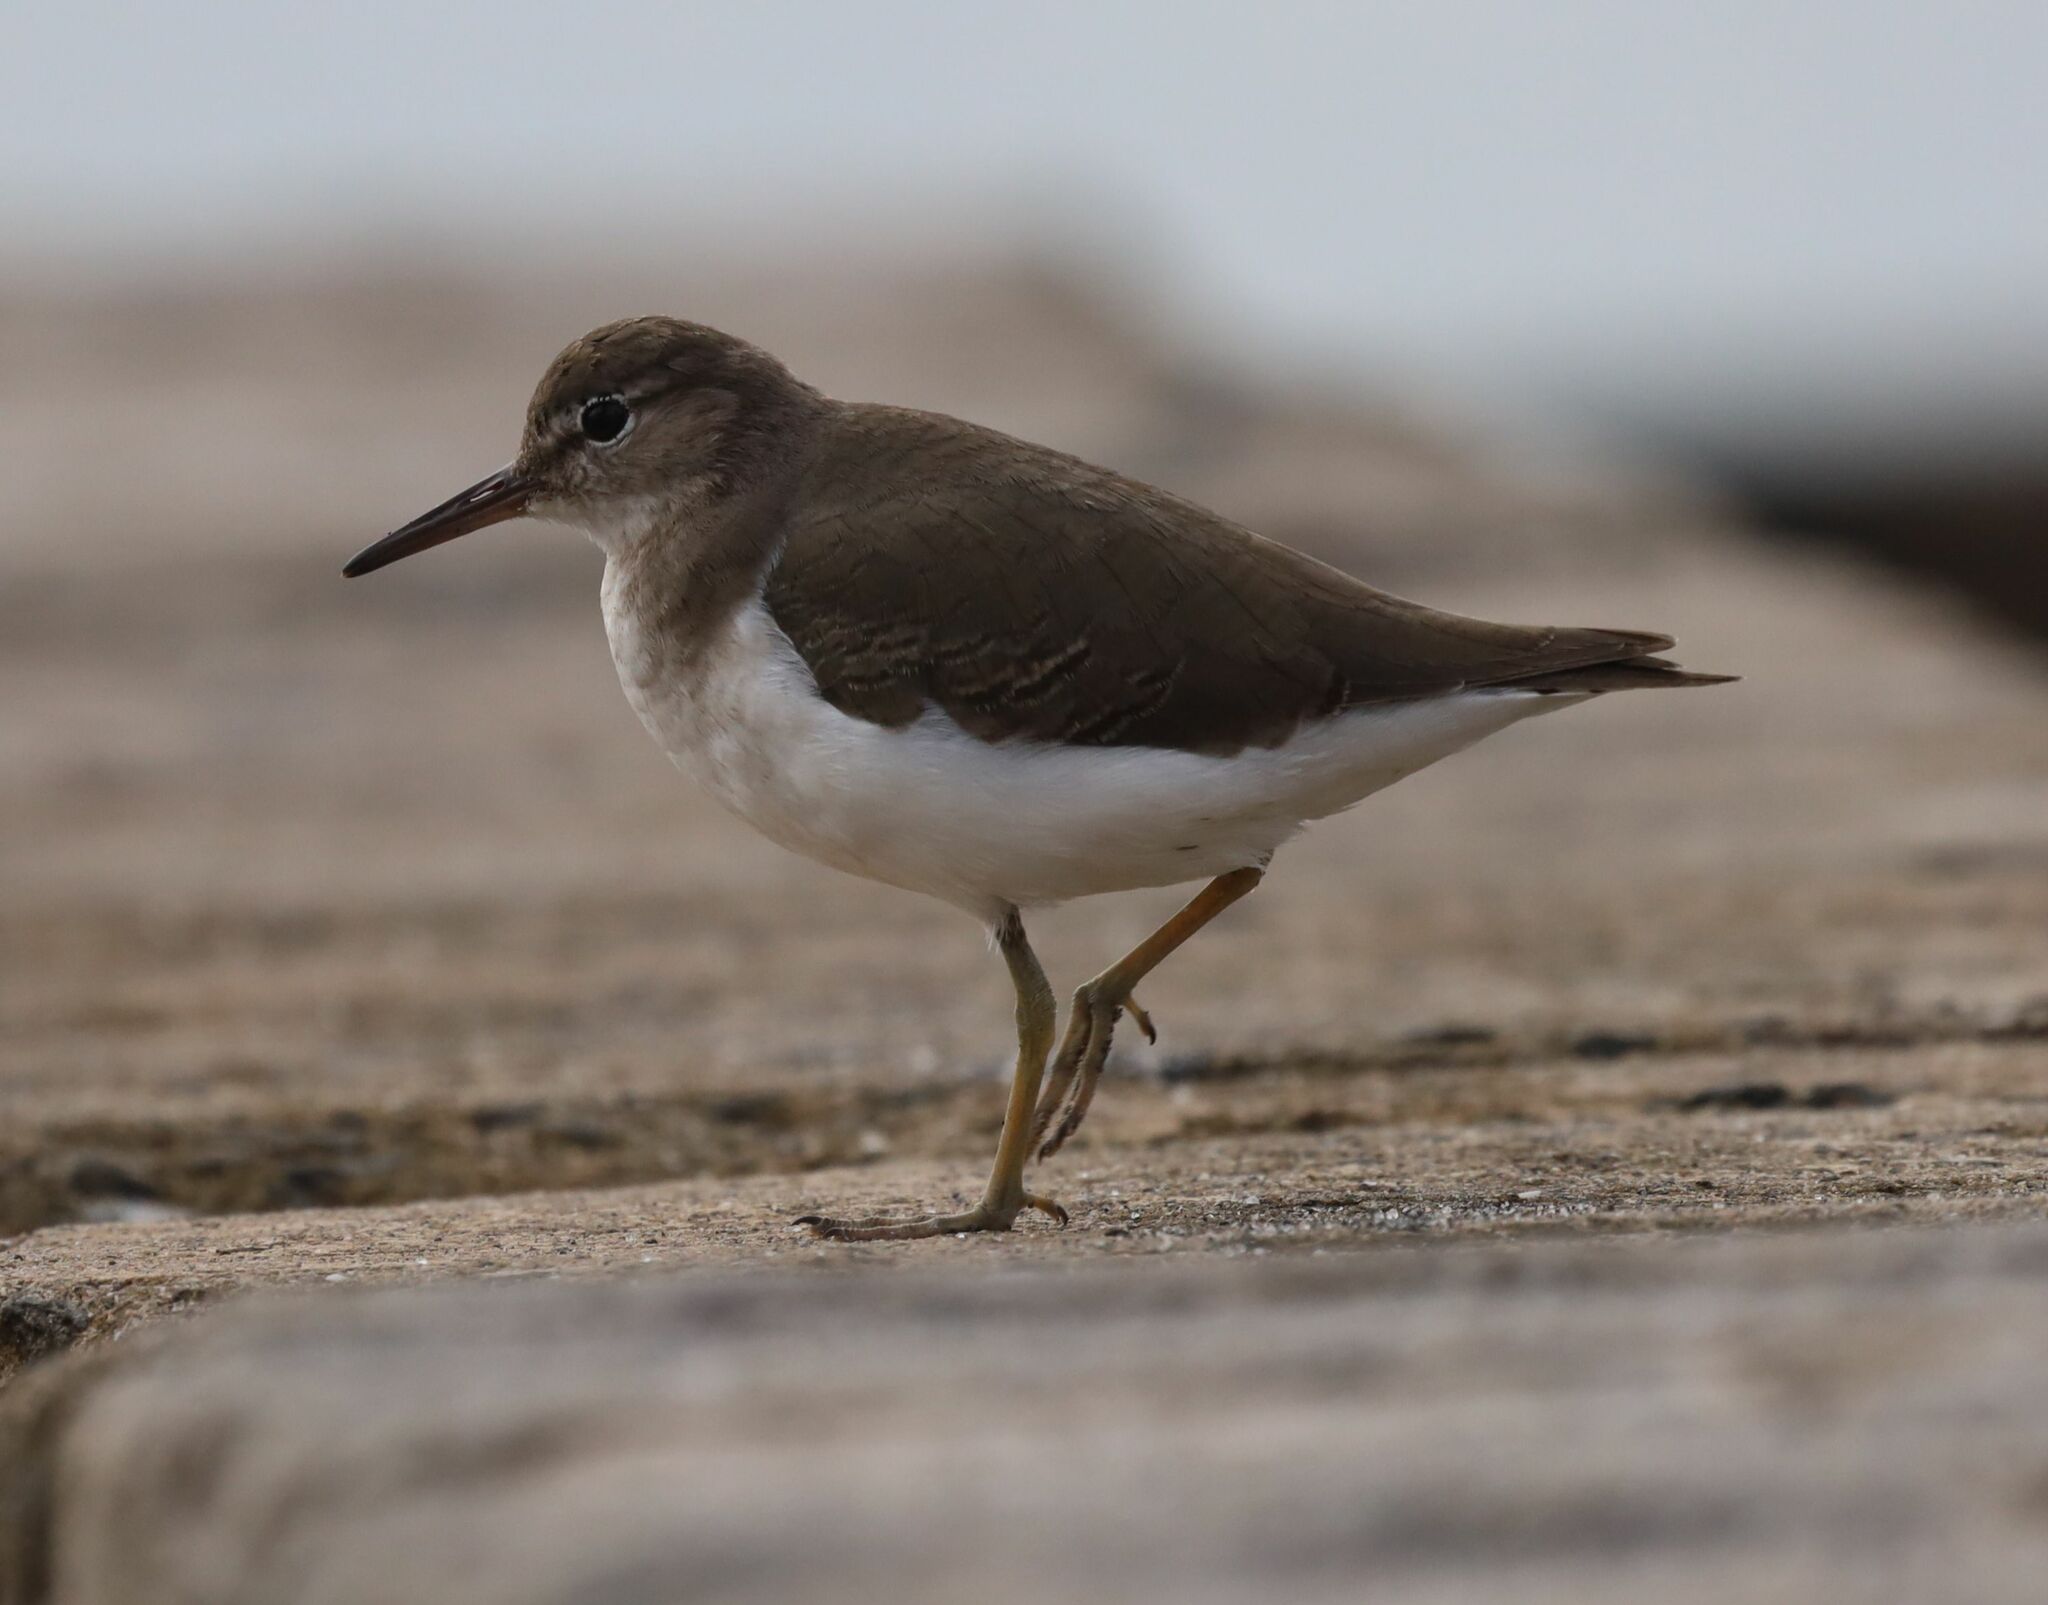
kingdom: Animalia
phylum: Chordata
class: Aves
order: Charadriiformes
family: Scolopacidae
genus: Actitis
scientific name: Actitis macularius
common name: Spotted sandpiper
